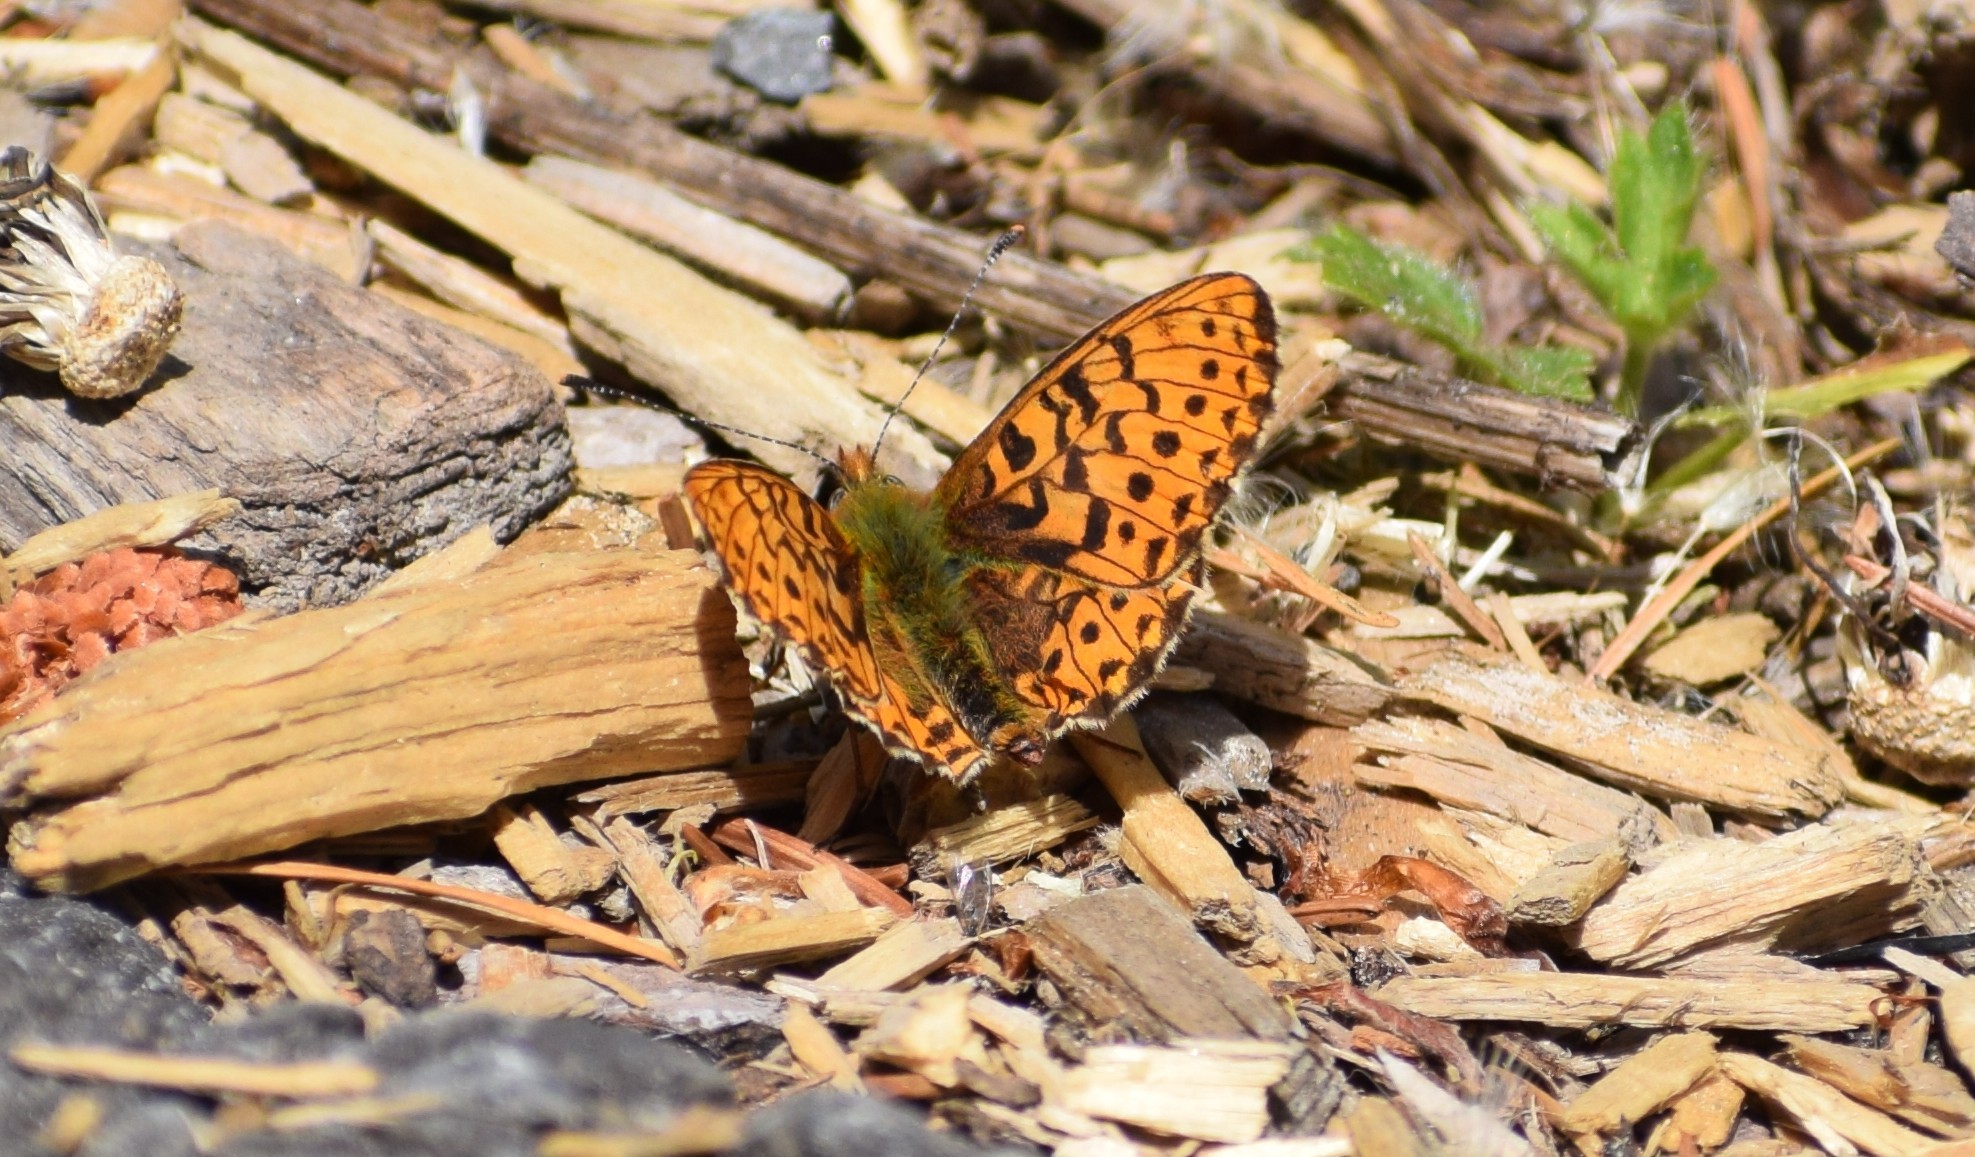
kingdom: Animalia
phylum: Arthropoda
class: Insecta
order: Lepidoptera
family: Nymphalidae
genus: Clossiana
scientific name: Clossiana euphrosyne
